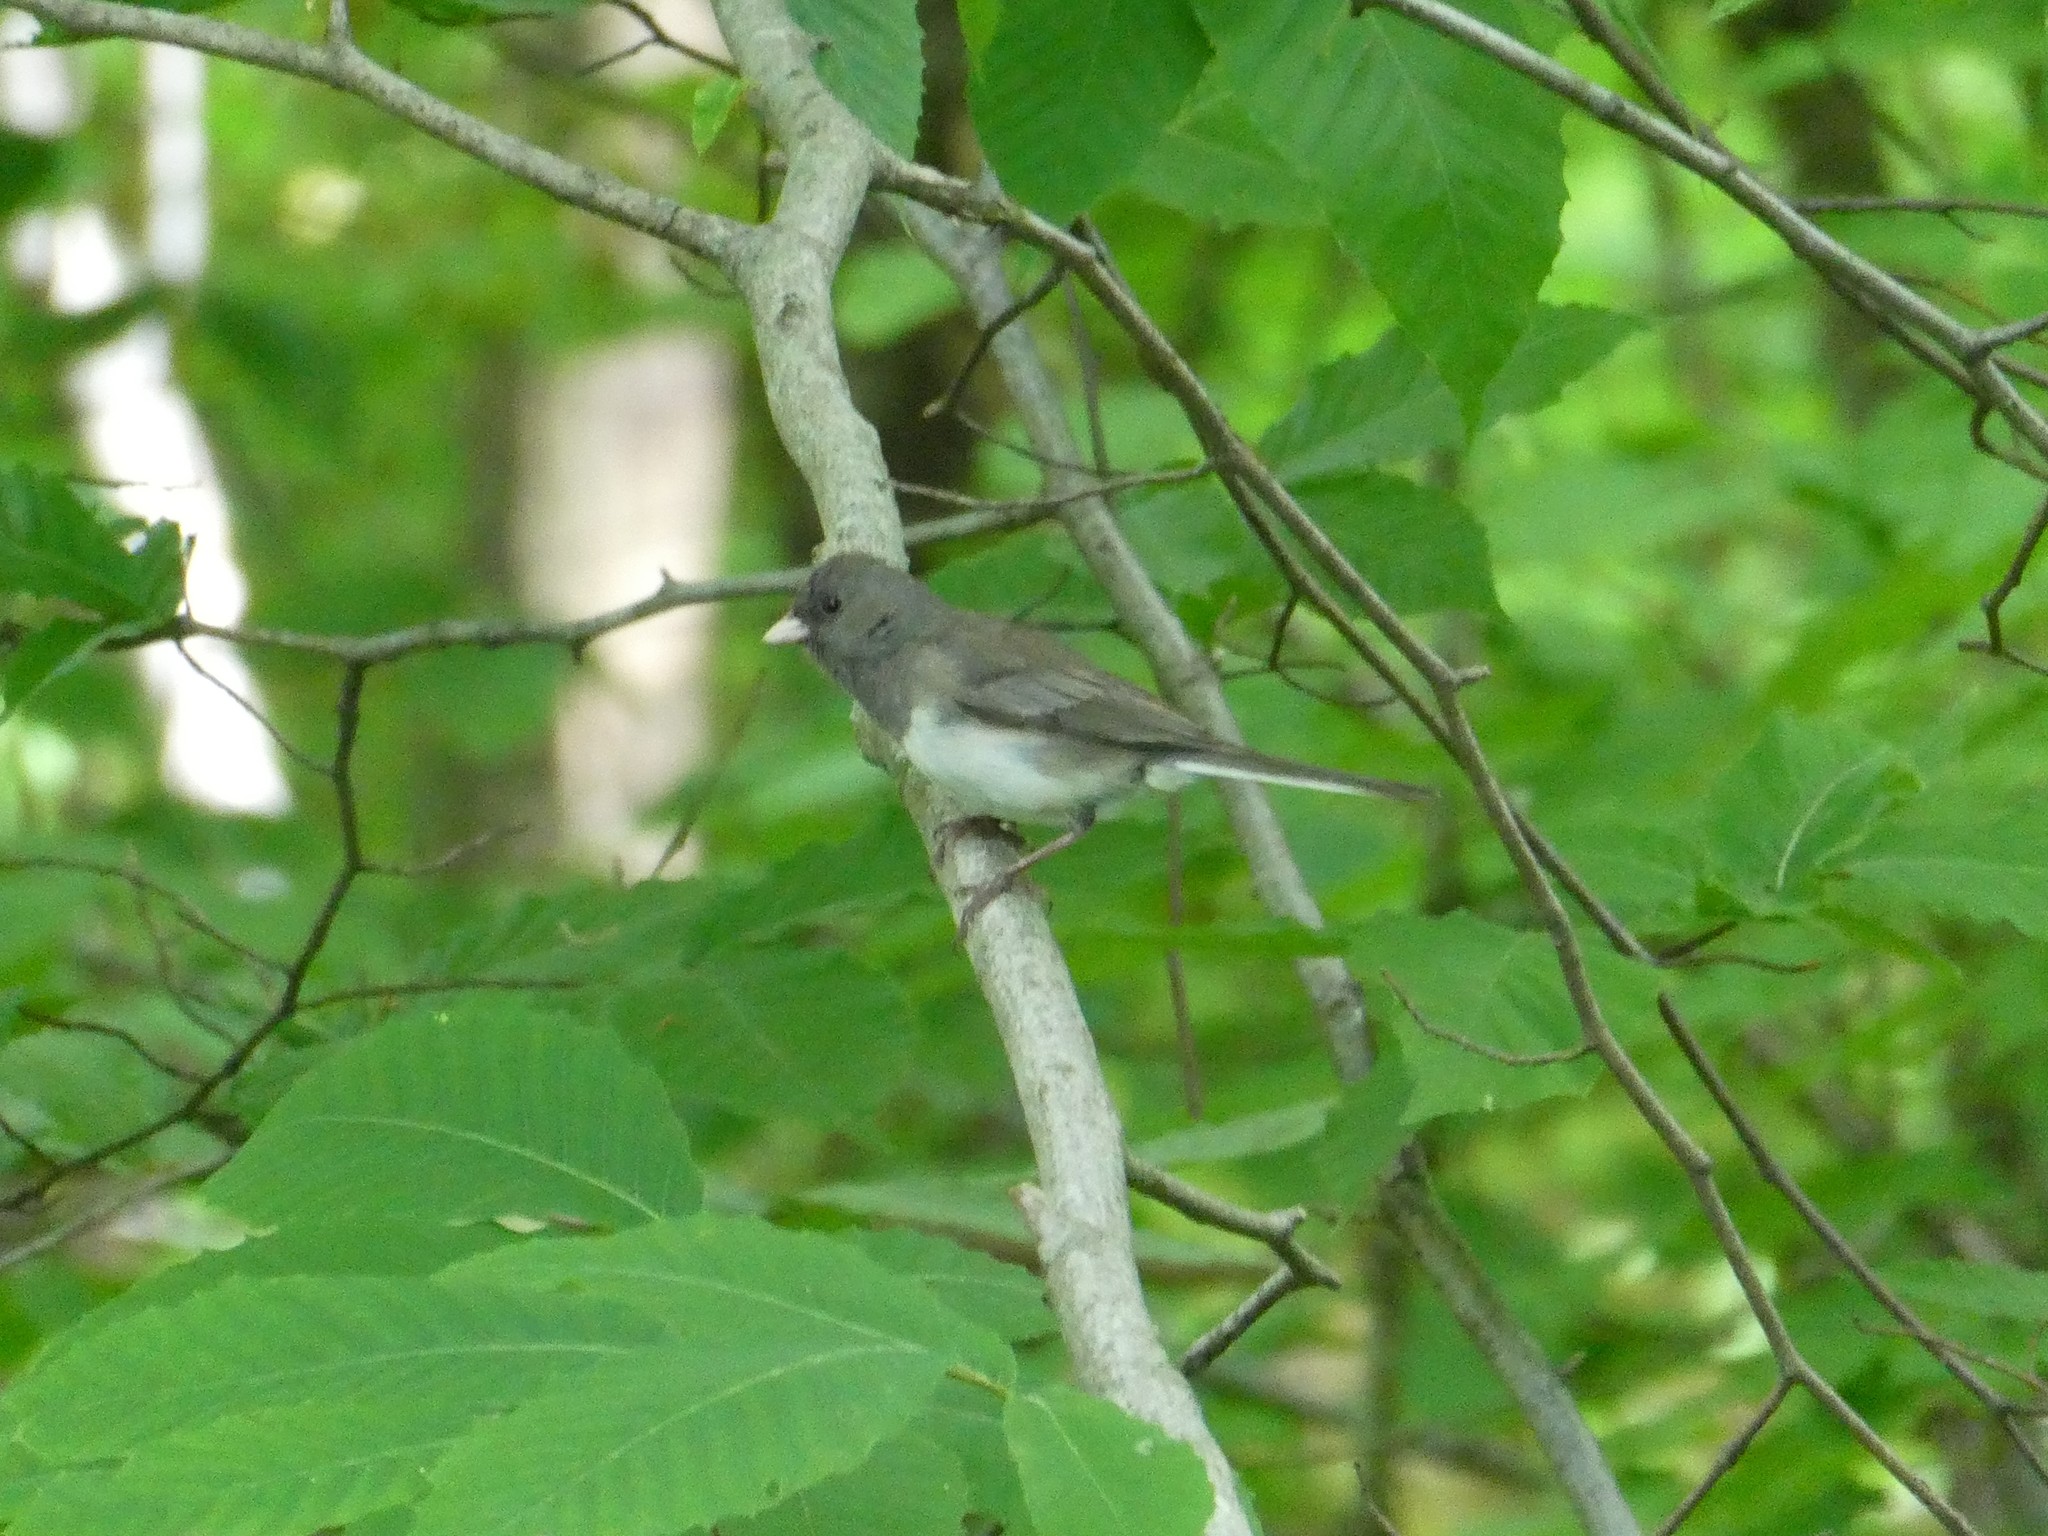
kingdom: Animalia
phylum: Chordata
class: Aves
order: Passeriformes
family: Passerellidae
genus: Junco
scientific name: Junco hyemalis
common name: Dark-eyed junco
